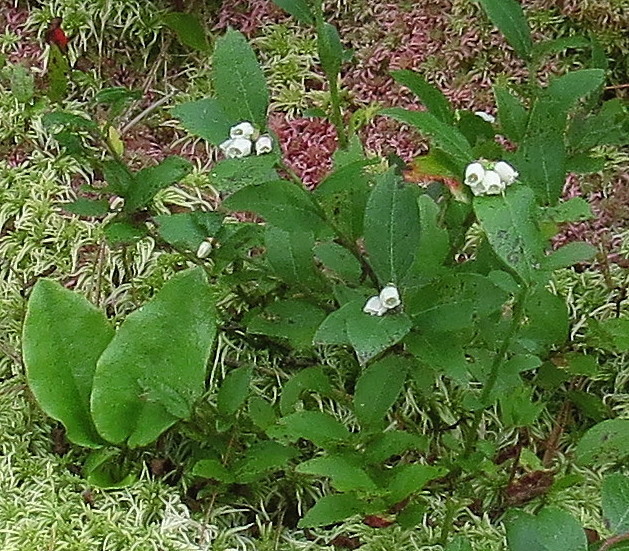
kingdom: Plantae
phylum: Tracheophyta
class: Magnoliopsida
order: Ericales
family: Ericaceae
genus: Vaccinium
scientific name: Vaccinium angustifolium
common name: Early lowbush blueberry
